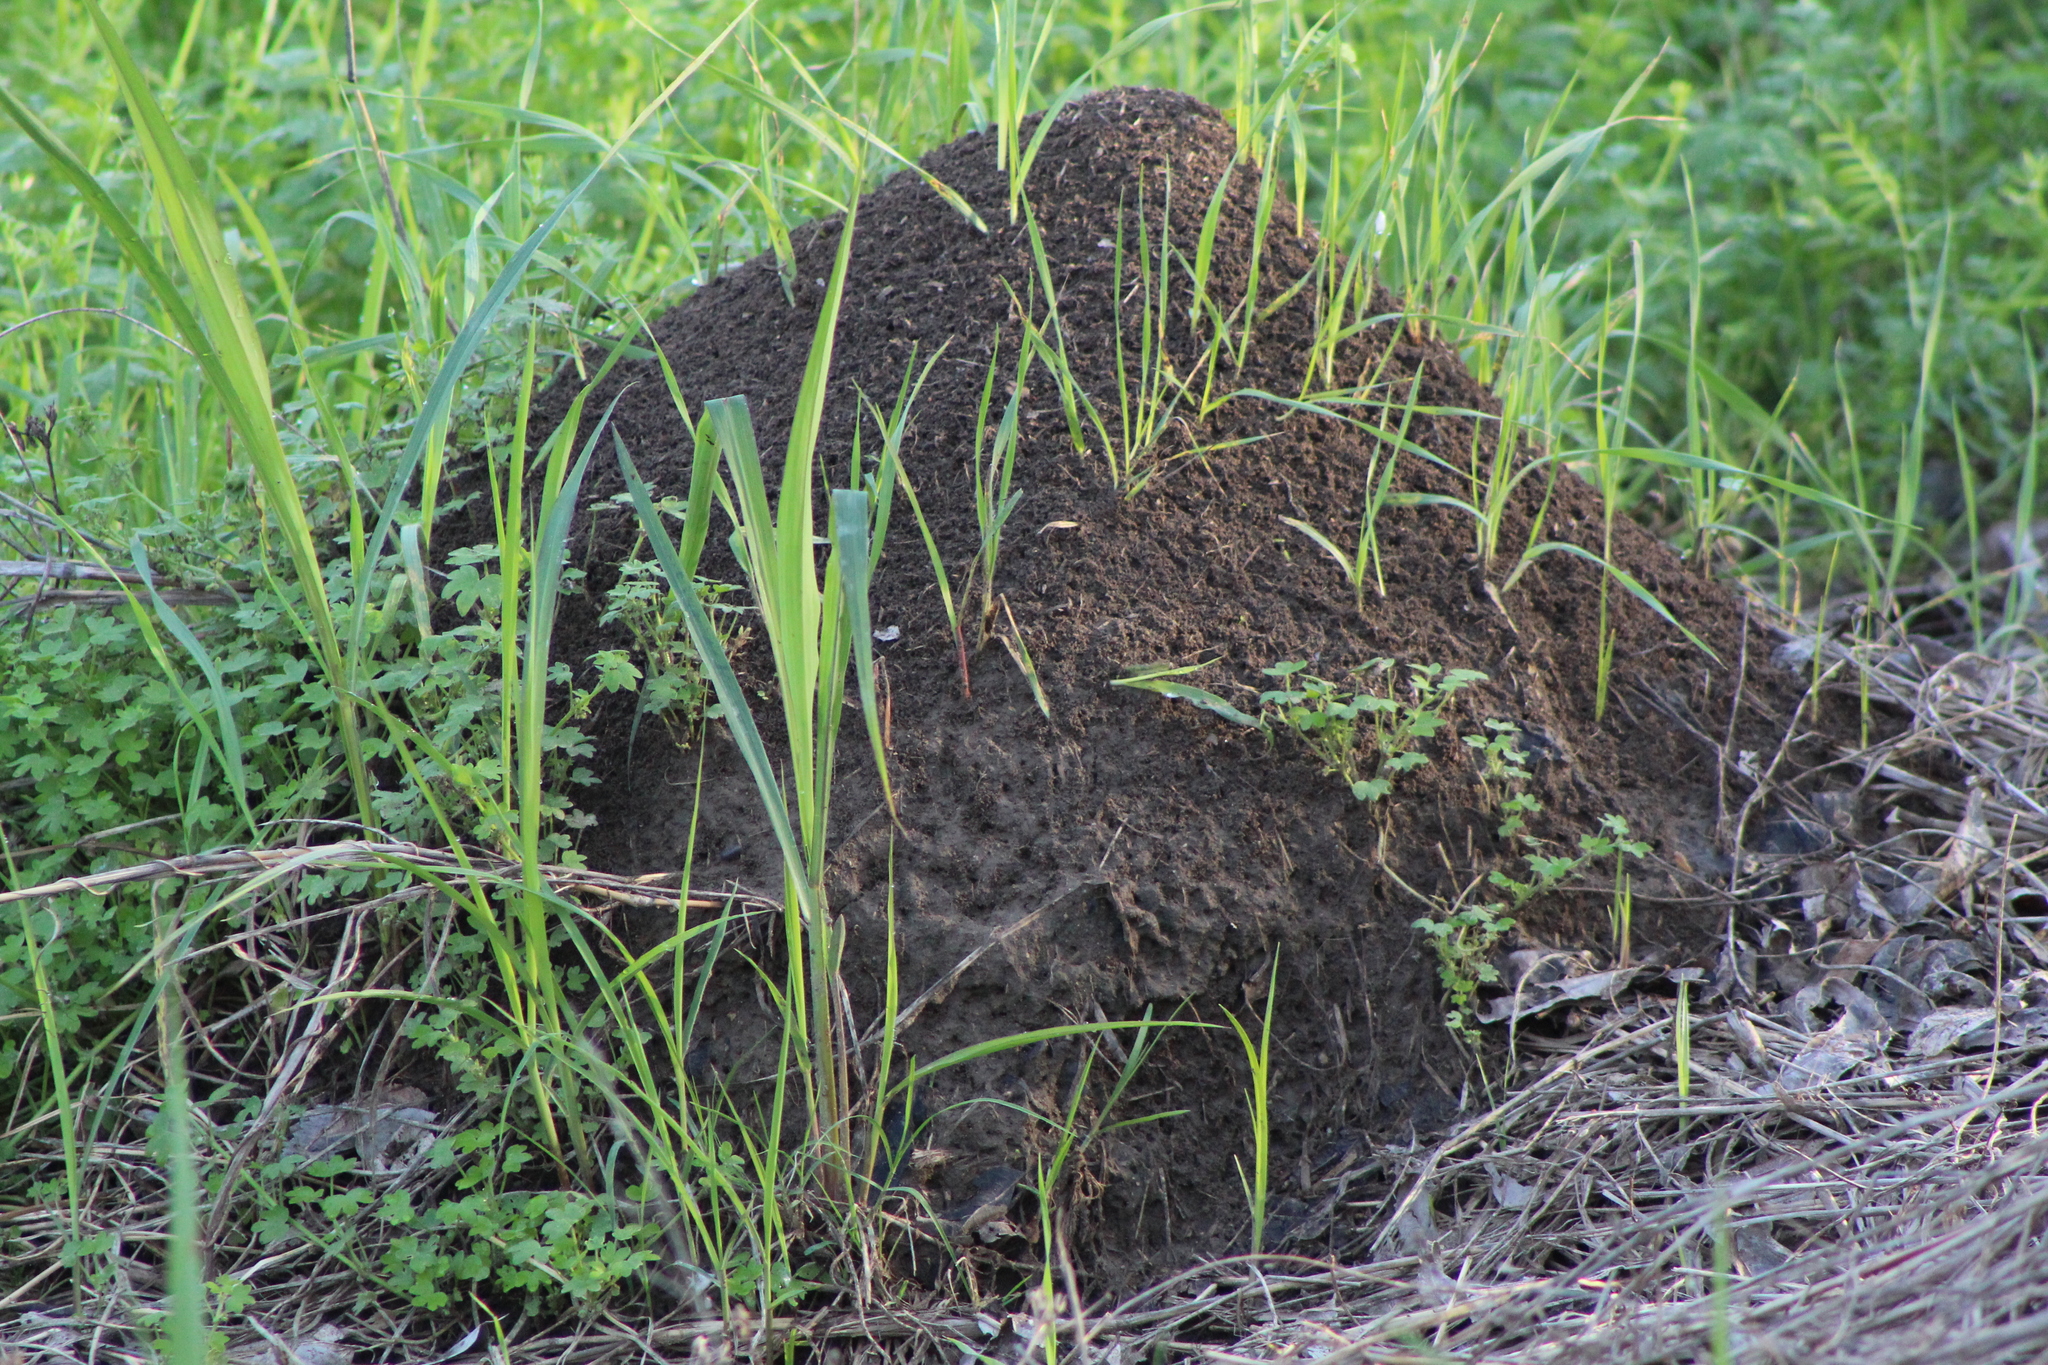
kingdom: Animalia
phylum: Arthropoda
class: Insecta
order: Hymenoptera
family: Formicidae
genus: Solenopsis
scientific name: Solenopsis invicta
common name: Red imported fire ant
